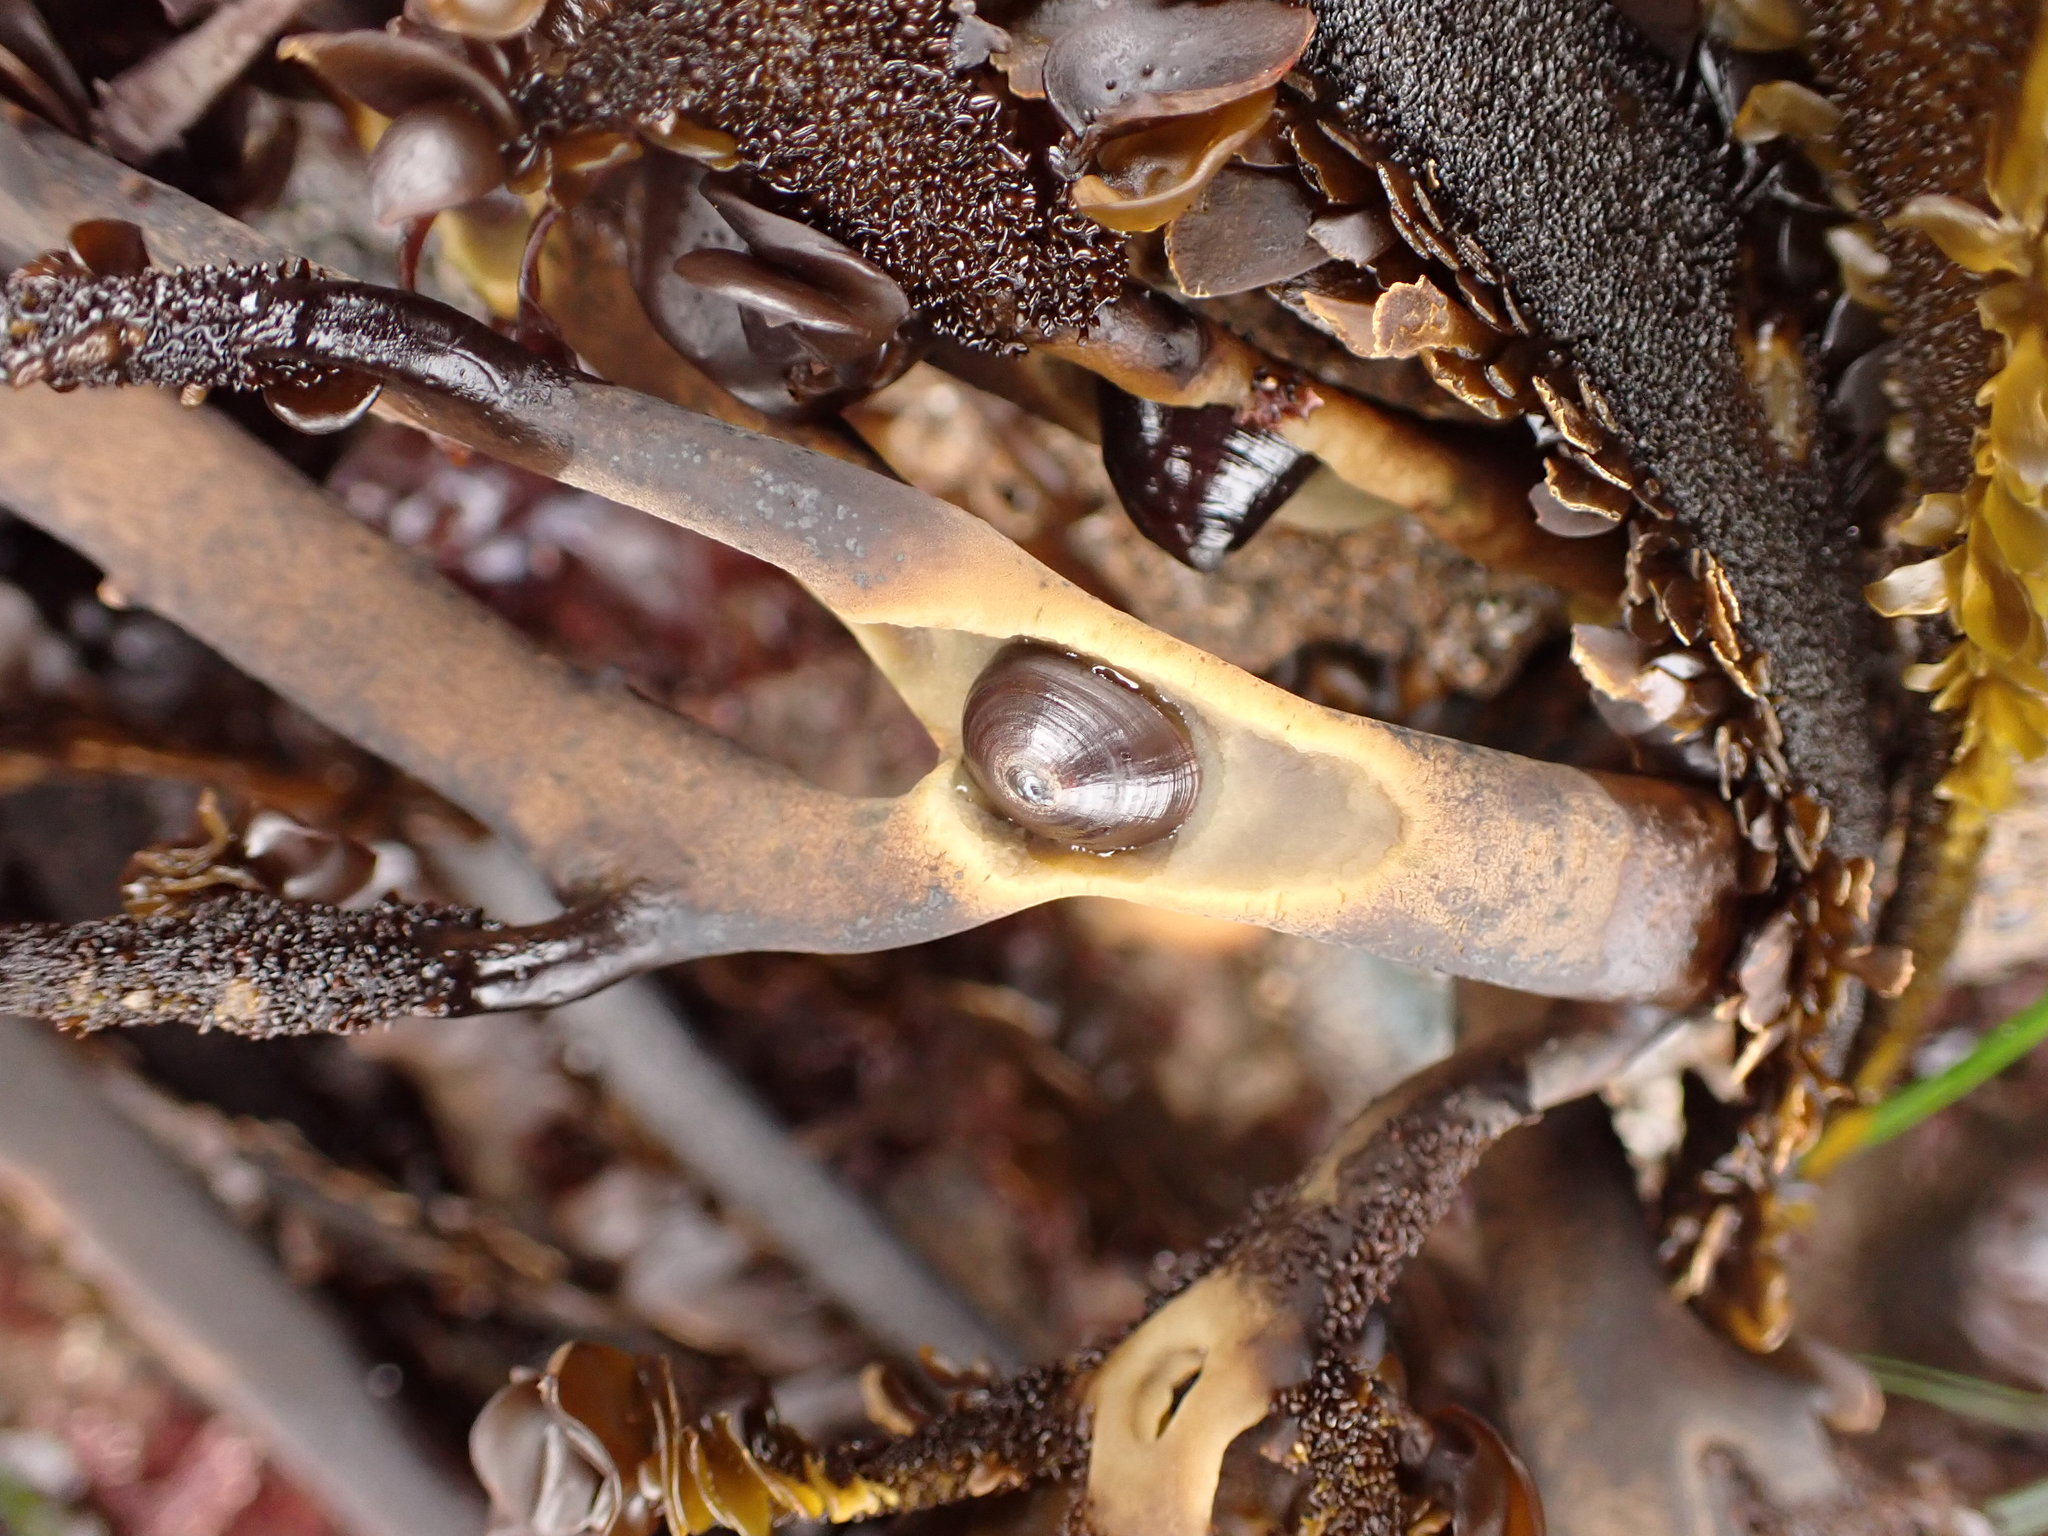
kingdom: Animalia
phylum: Mollusca
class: Gastropoda
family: Lottiidae
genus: Discurria
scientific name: Discurria insessa
